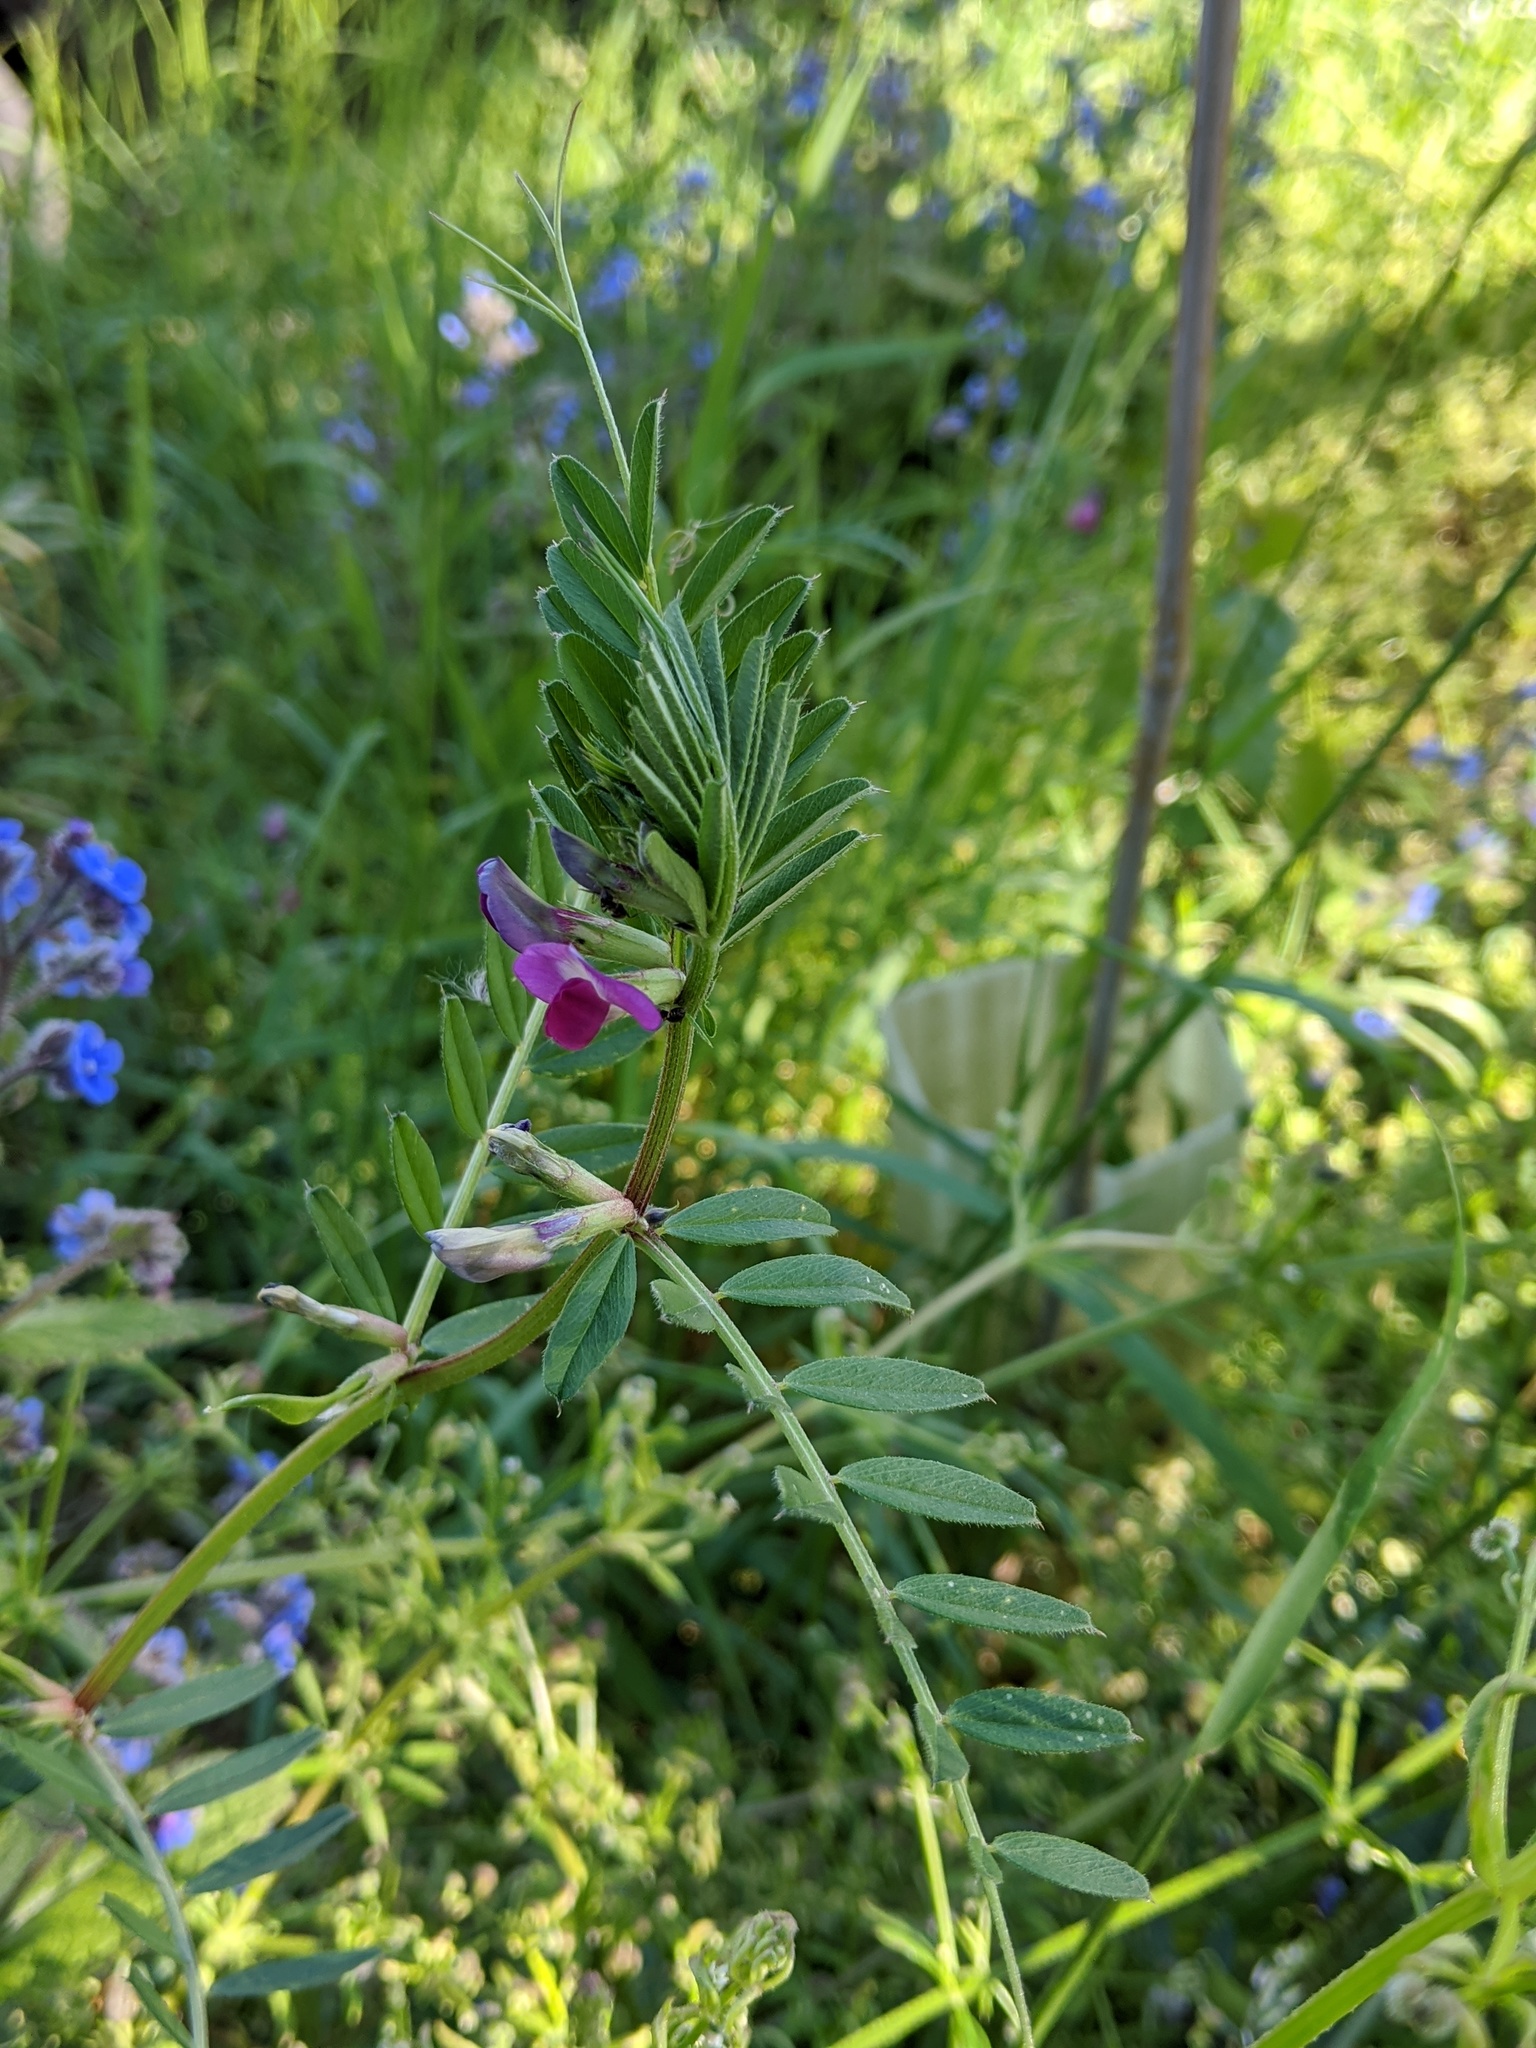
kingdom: Plantae
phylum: Tracheophyta
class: Magnoliopsida
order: Fabales
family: Fabaceae
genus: Vicia
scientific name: Vicia sativa
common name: Garden vetch
